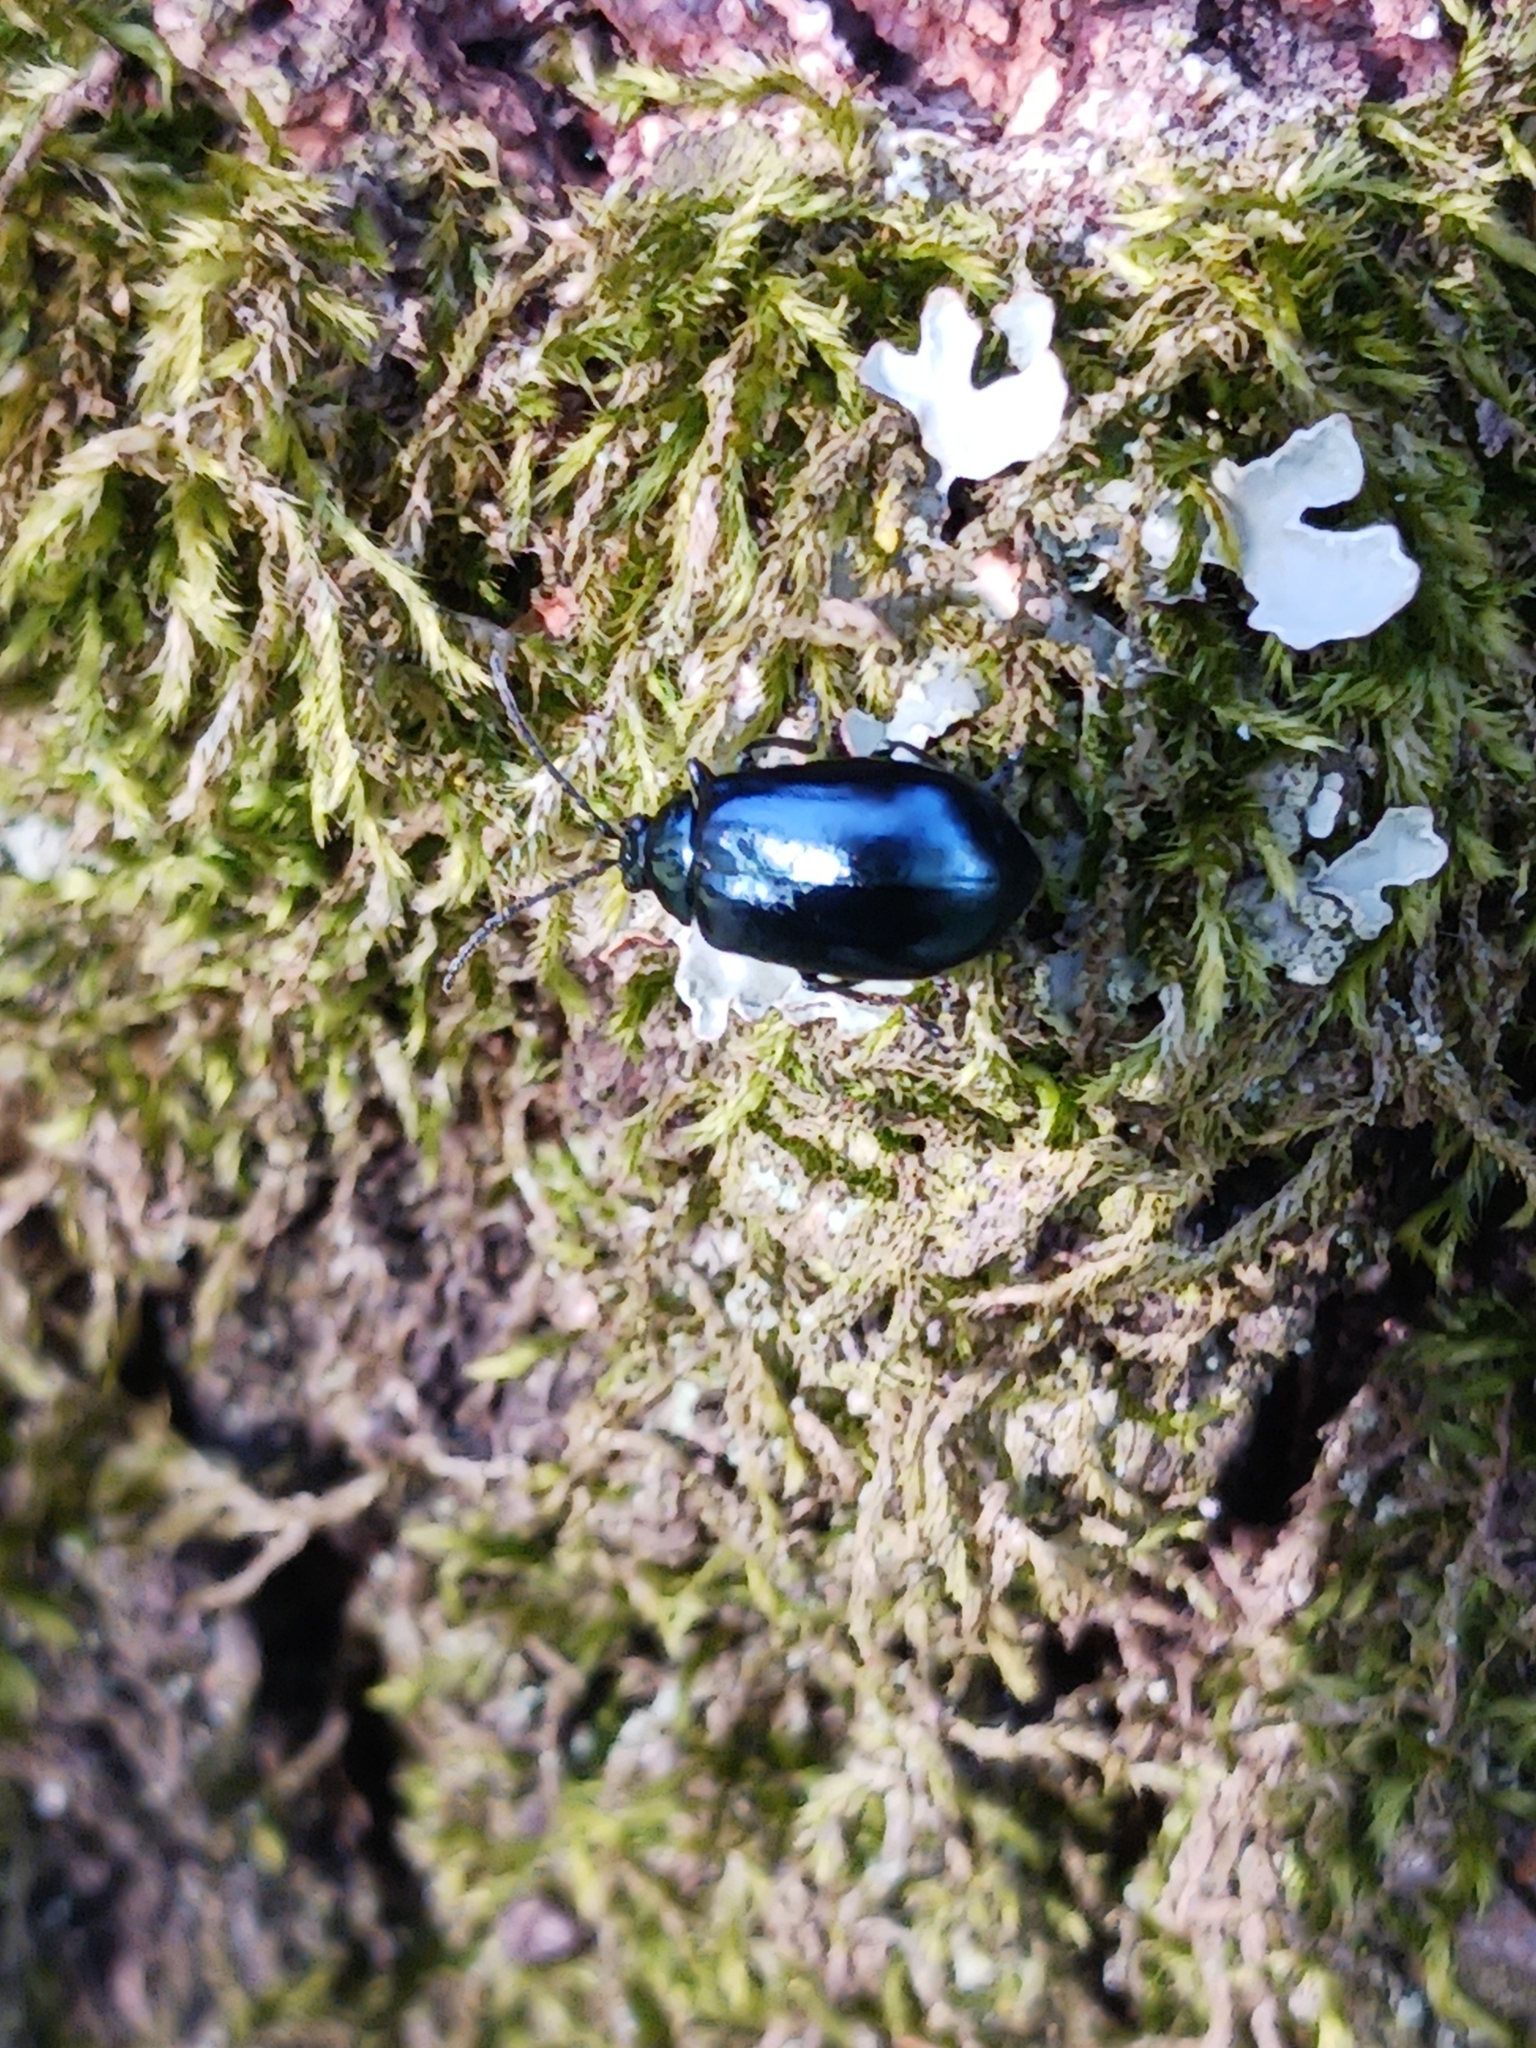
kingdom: Animalia
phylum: Arthropoda
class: Insecta
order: Coleoptera
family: Chrysomelidae
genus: Agelastica
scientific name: Agelastica alni
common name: Alder leaf beetle
